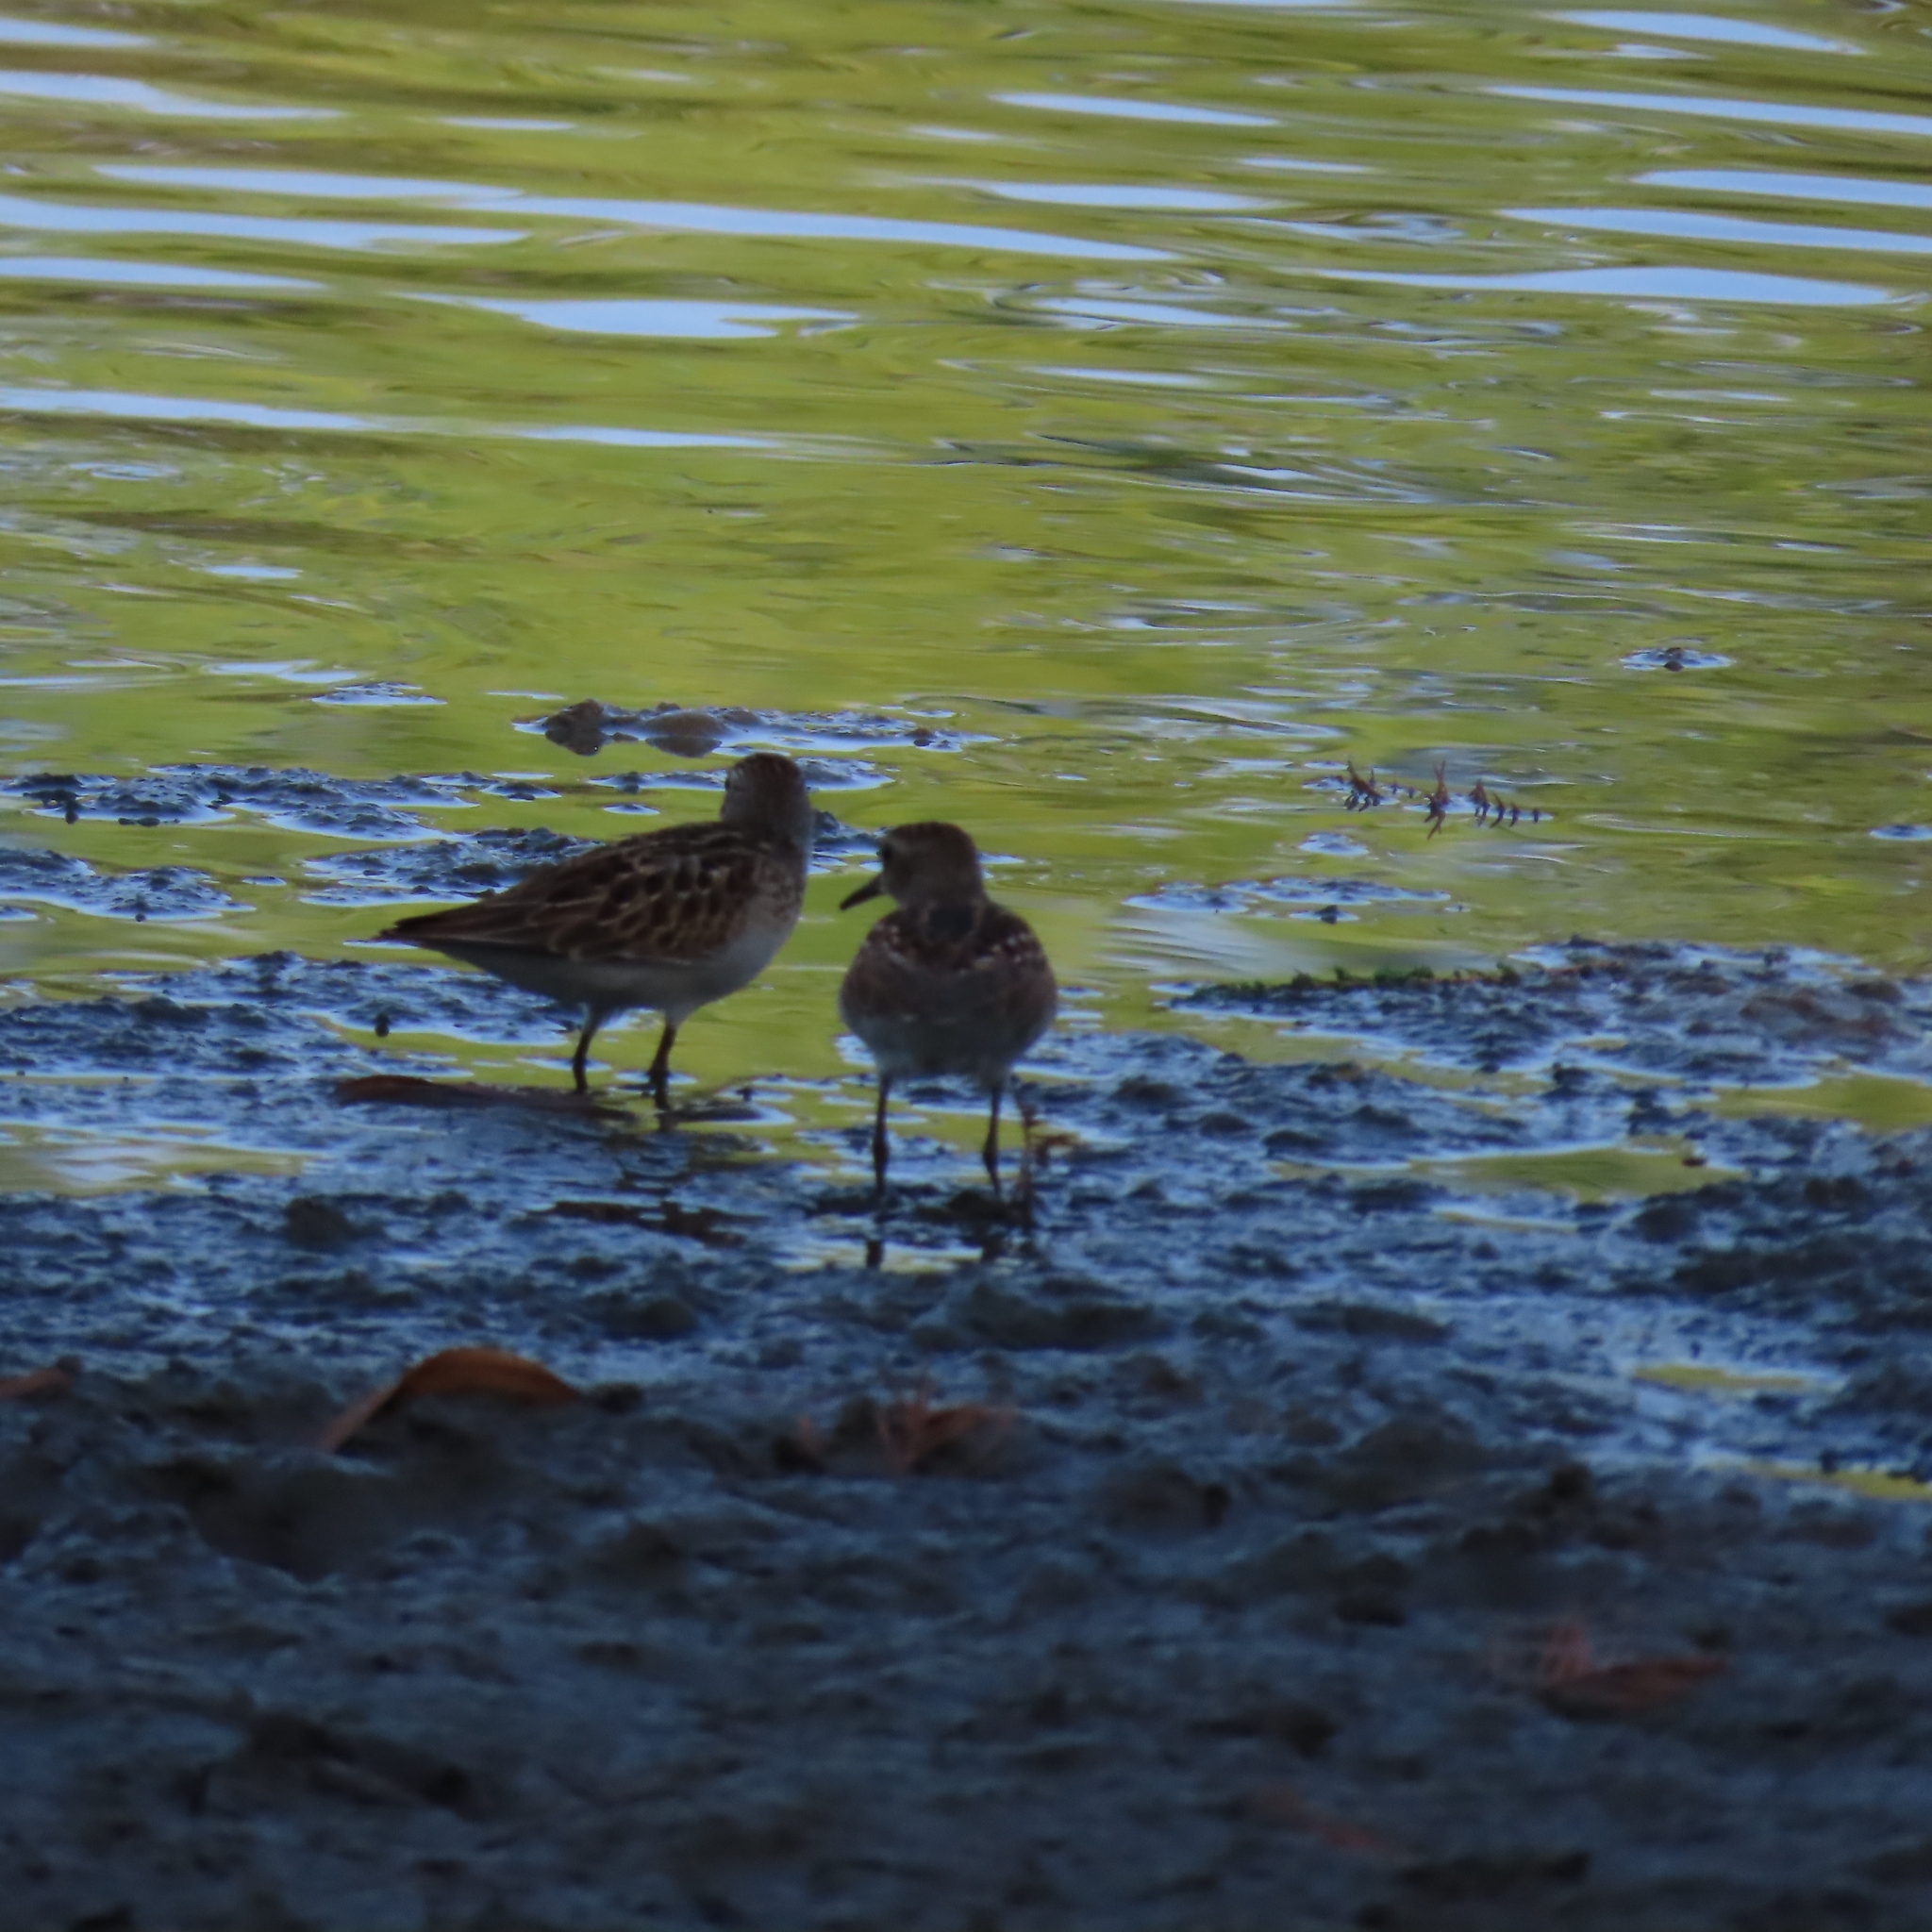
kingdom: Animalia
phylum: Chordata
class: Aves
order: Charadriiformes
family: Scolopacidae
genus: Calidris
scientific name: Calidris minutilla
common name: Least sandpiper
